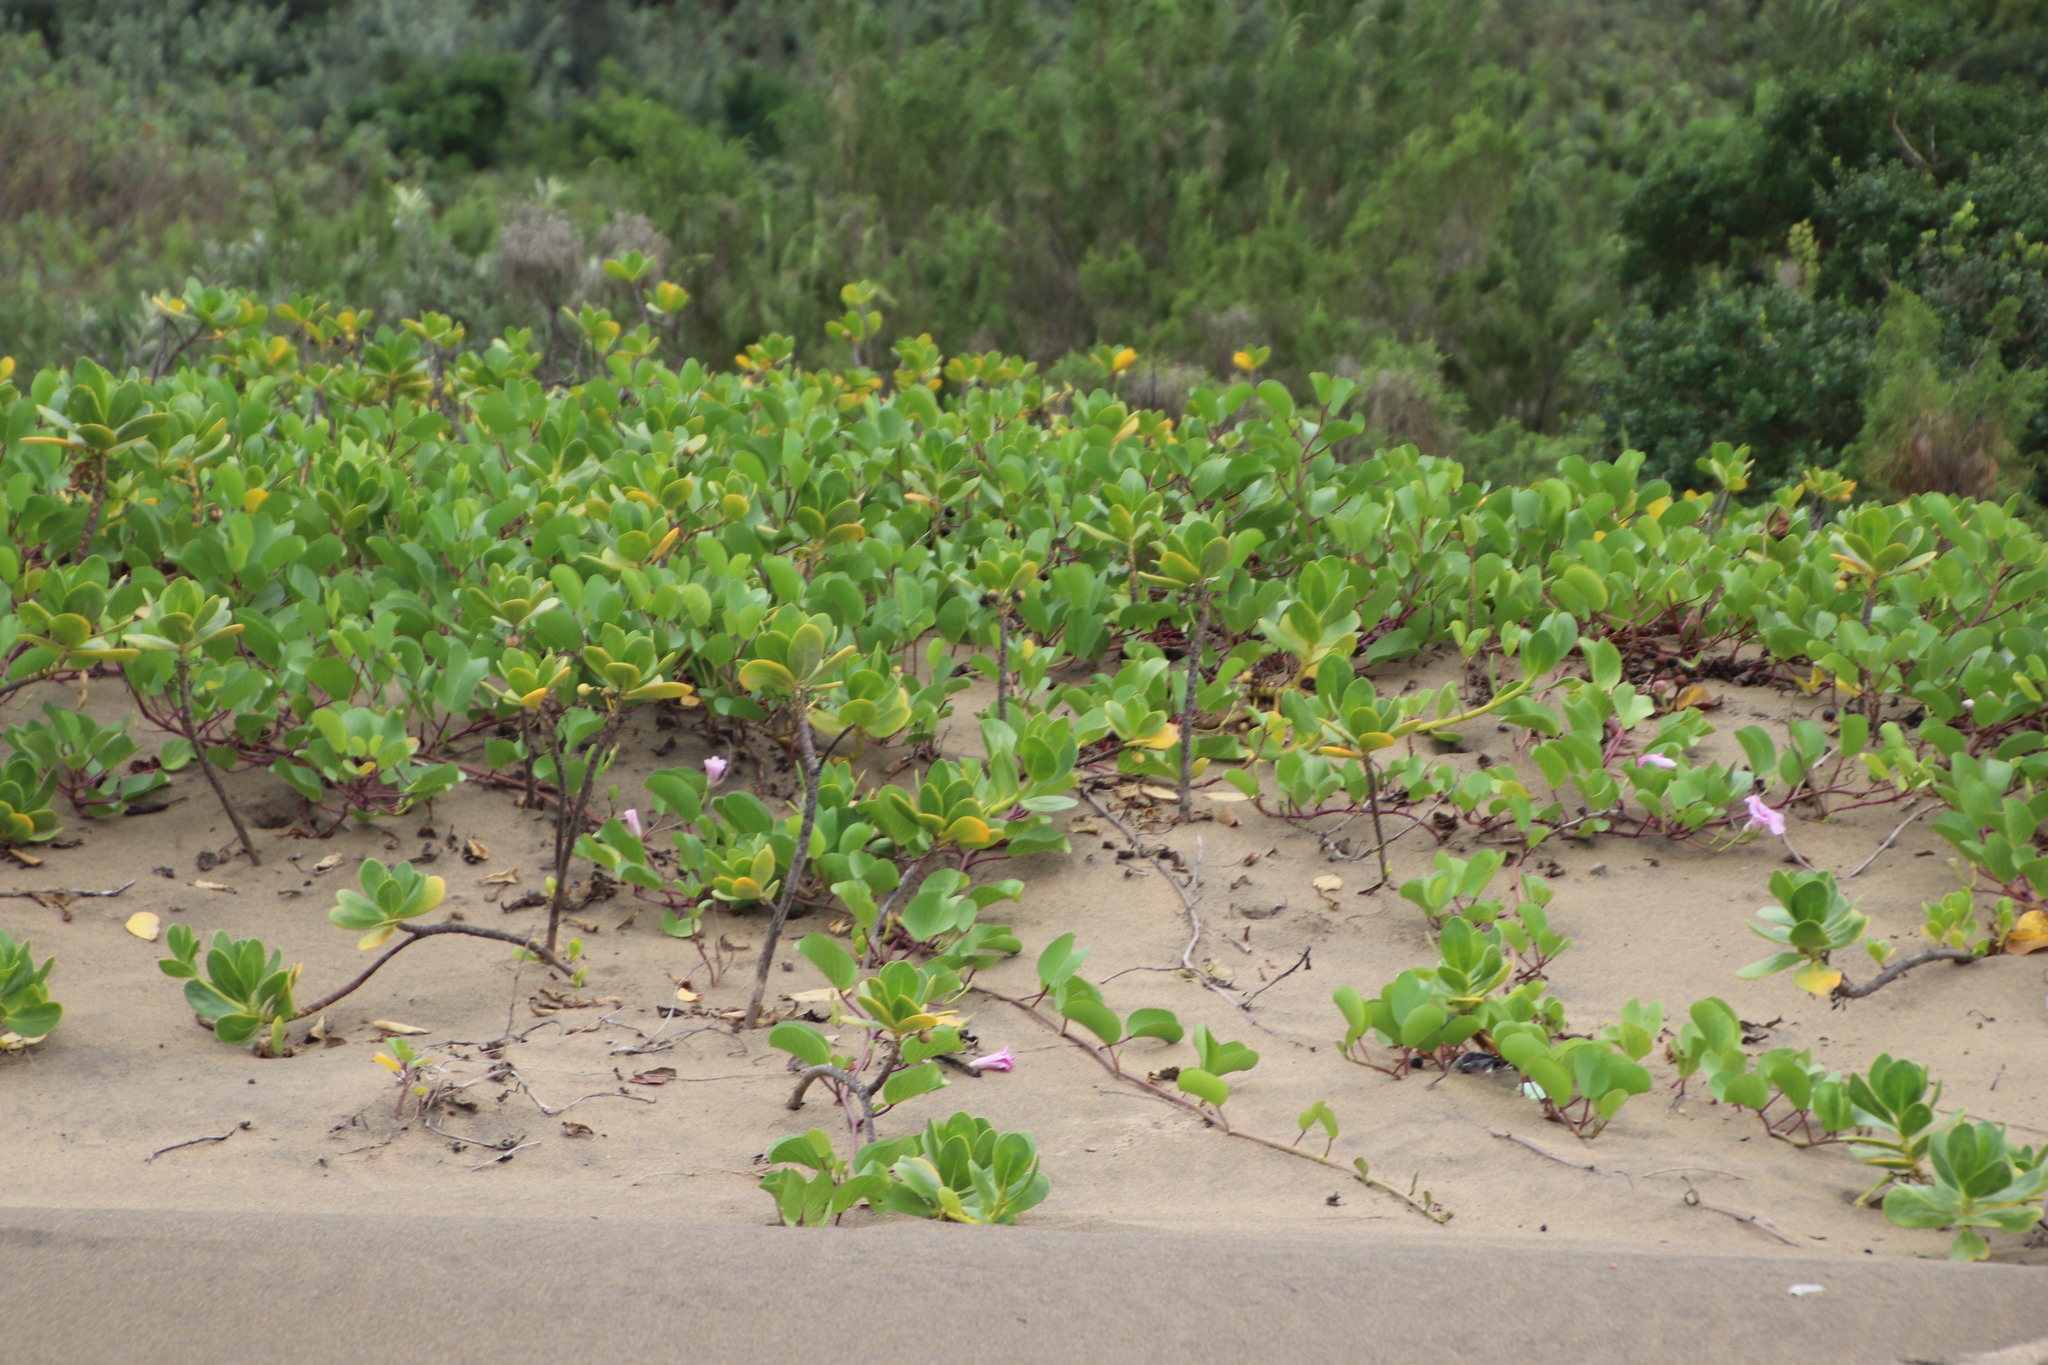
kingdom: Plantae
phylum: Tracheophyta
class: Magnoliopsida
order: Asterales
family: Goodeniaceae
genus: Scaevola
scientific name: Scaevola plumieri
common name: Gull feed
